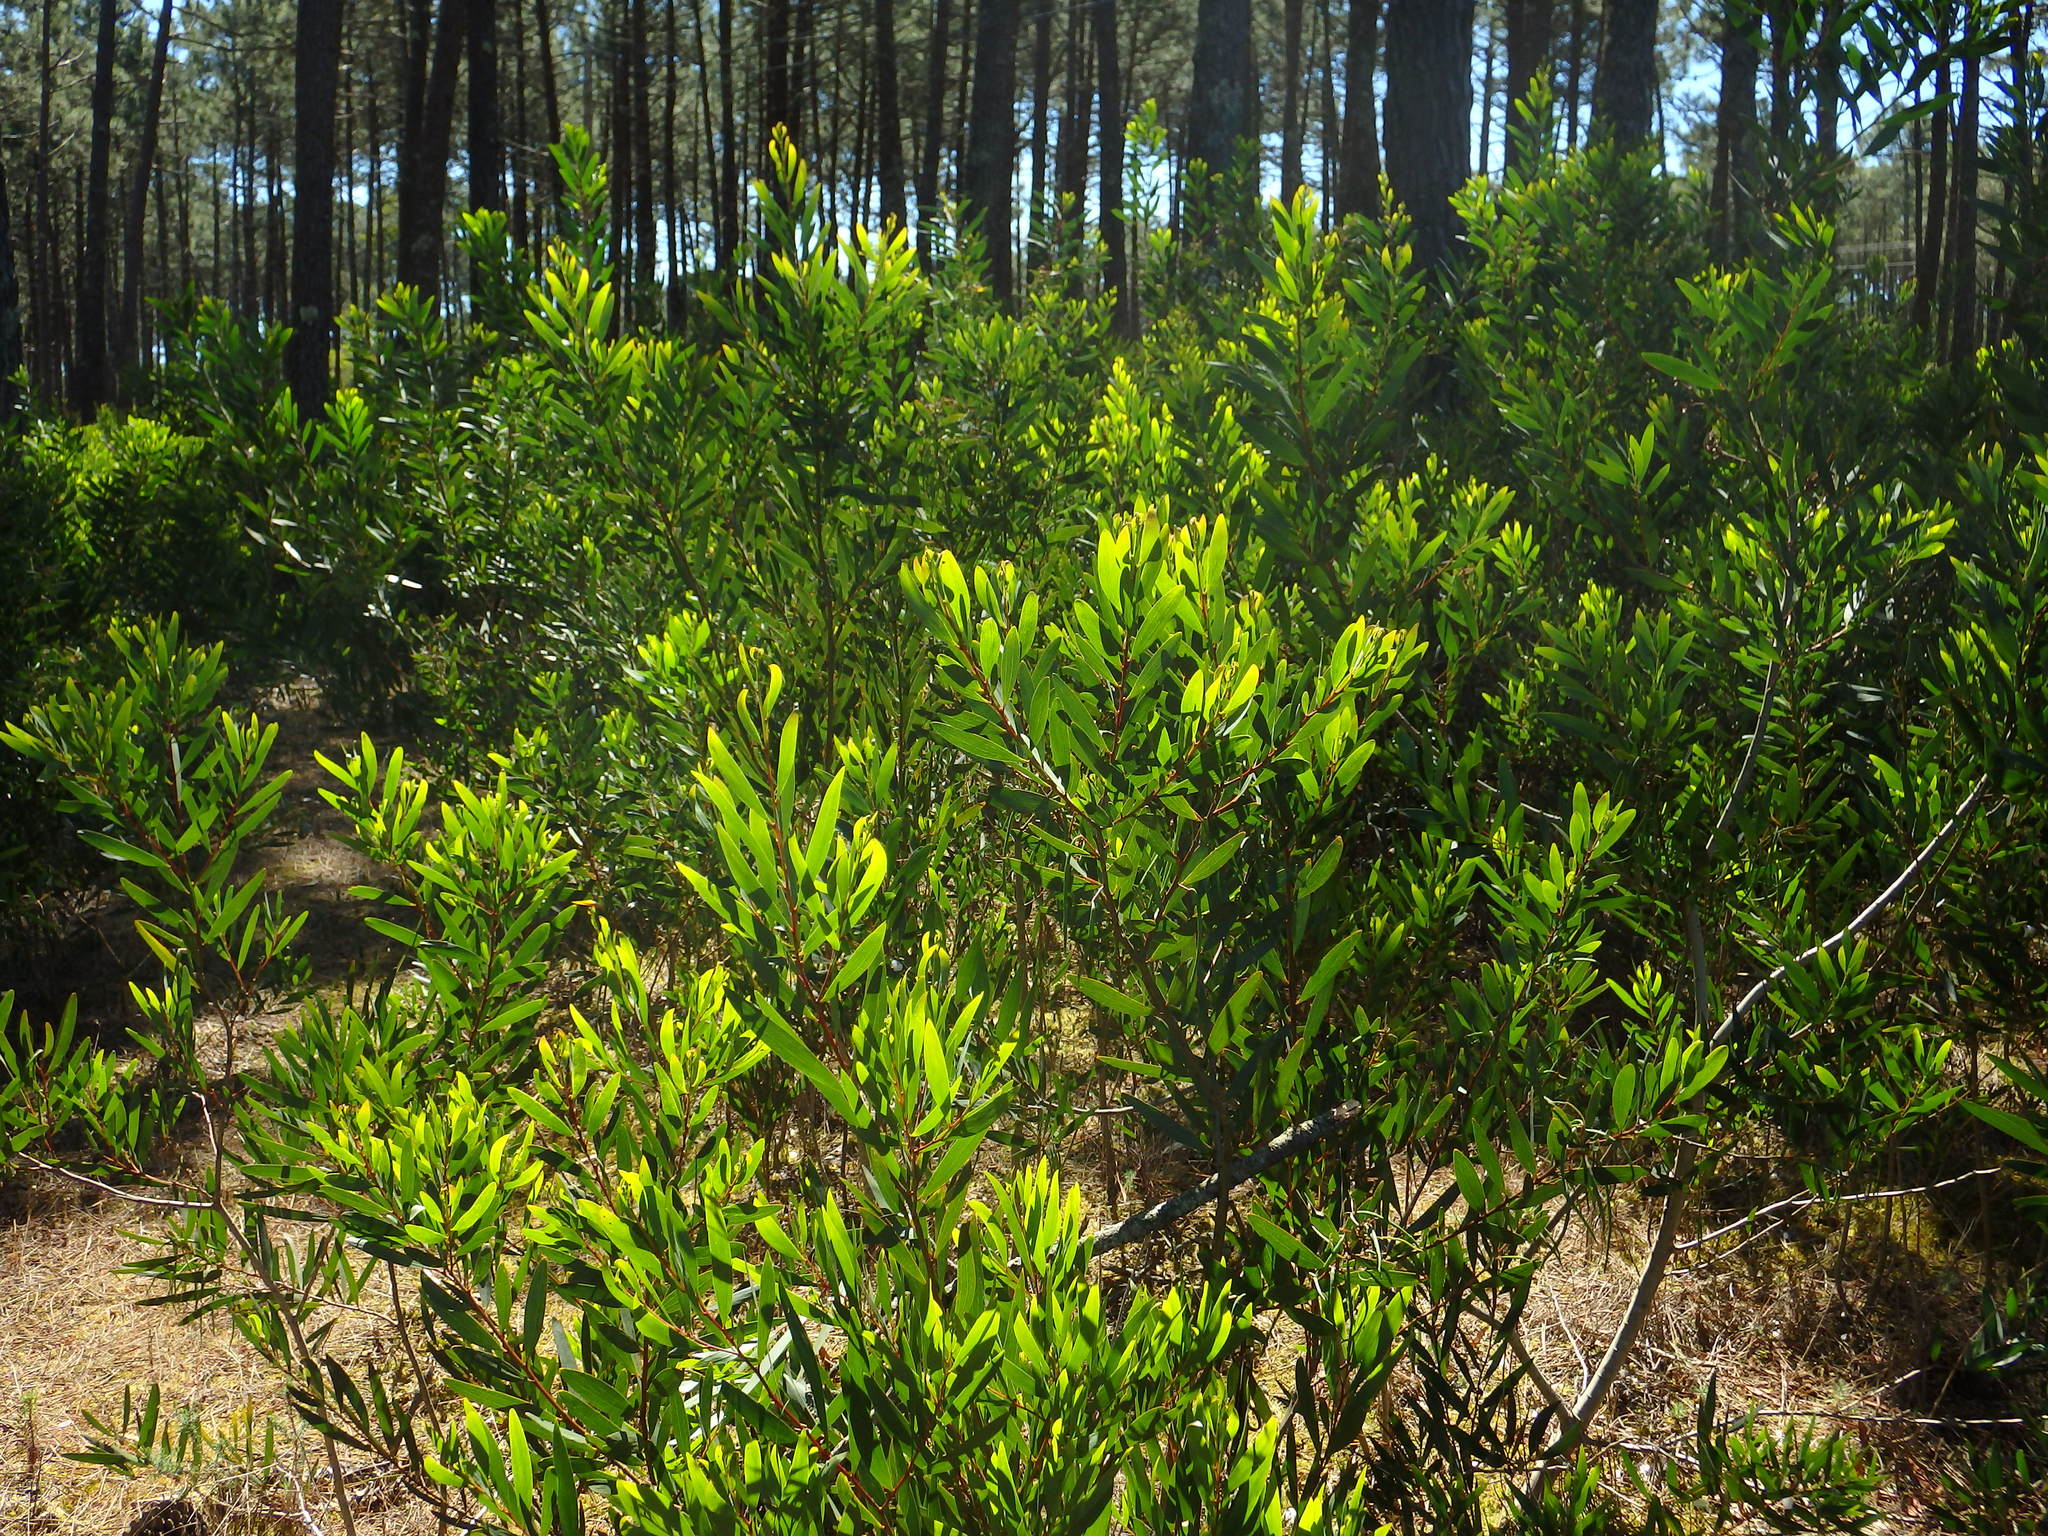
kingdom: Plantae
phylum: Tracheophyta
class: Magnoliopsida
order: Fabales
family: Fabaceae
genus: Acacia
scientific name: Acacia longifolia
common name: Sydney golden wattle
